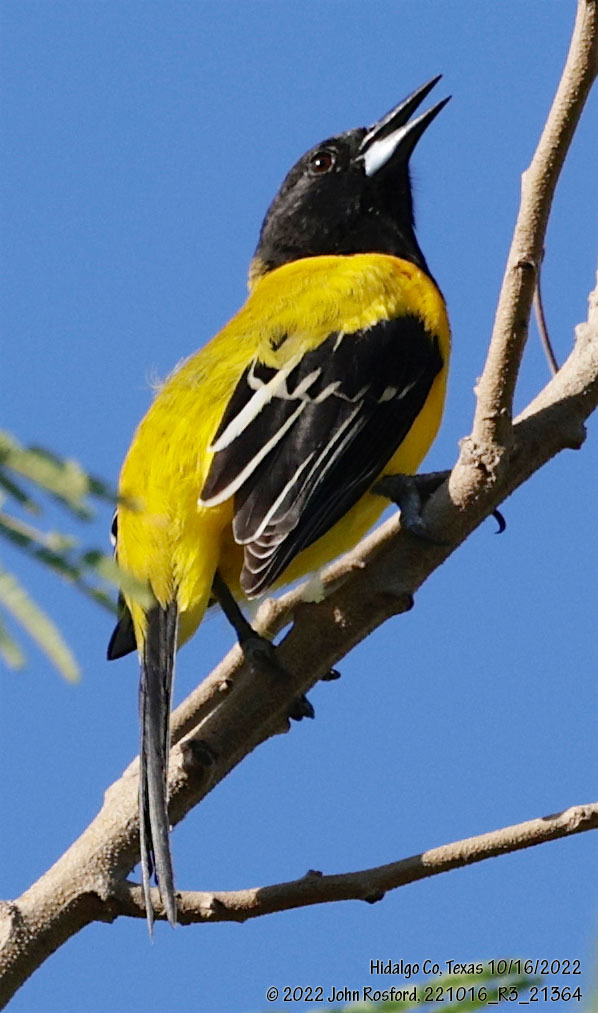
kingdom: Animalia
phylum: Chordata
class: Aves
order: Passeriformes
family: Icteridae
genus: Icterus
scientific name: Icterus graduacauda
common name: Audubon's oriole
